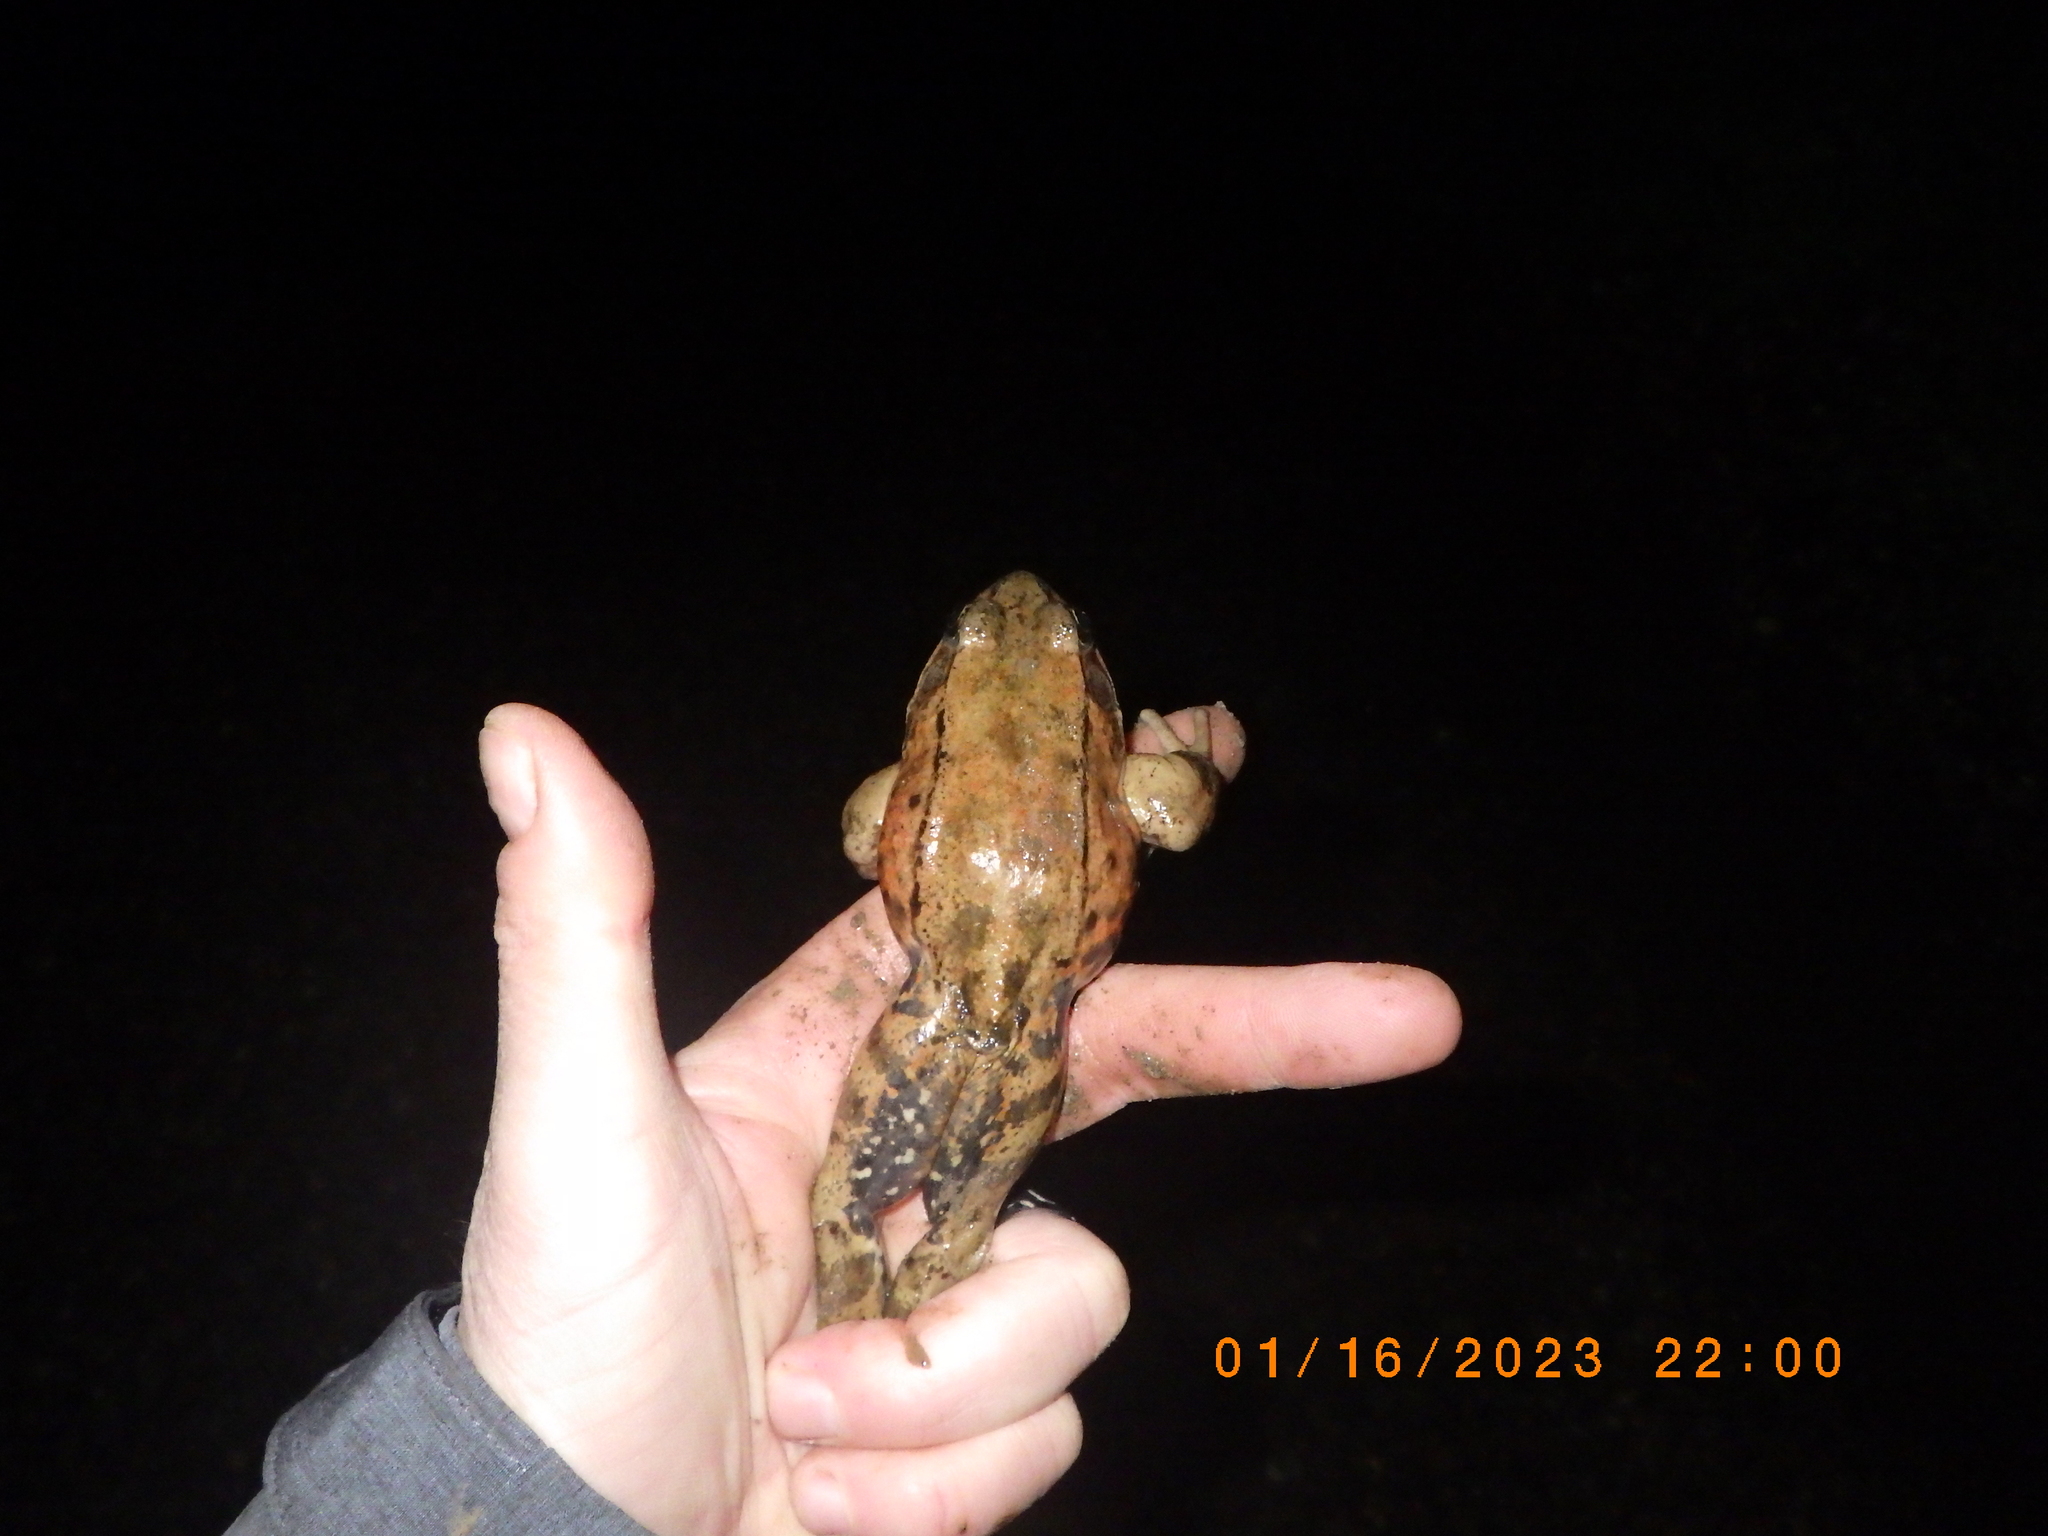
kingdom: Animalia
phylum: Chordata
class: Amphibia
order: Anura
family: Ranidae
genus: Rana
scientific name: Rana draytonii
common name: California red-legged frog
